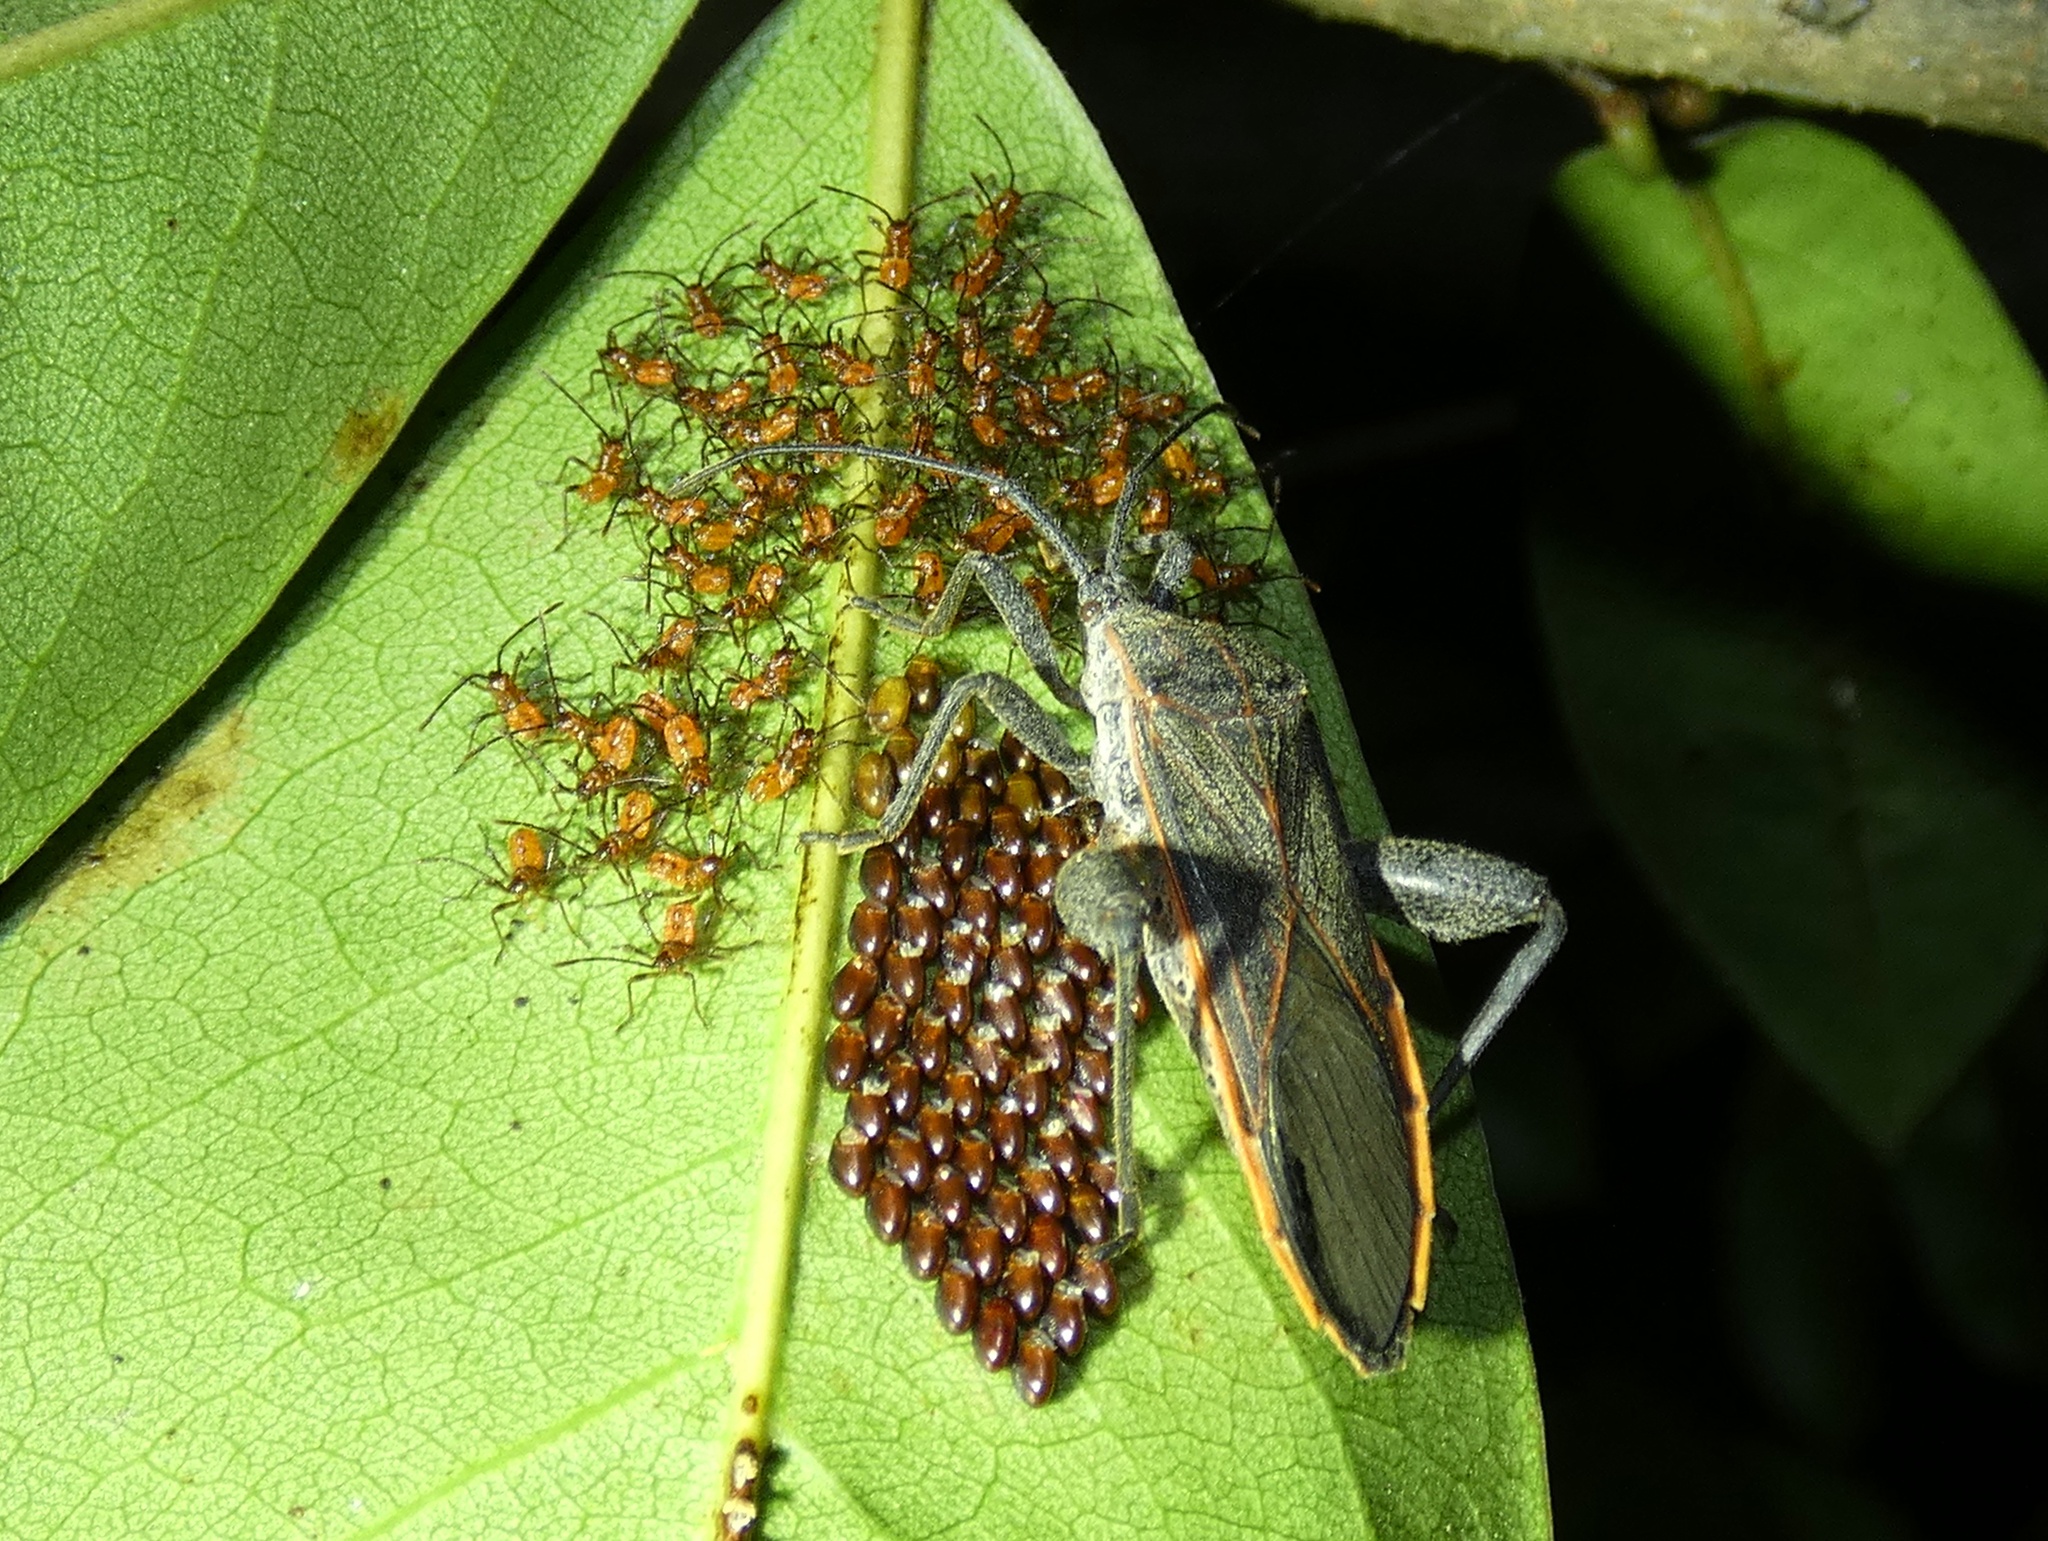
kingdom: Animalia
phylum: Arthropoda
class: Insecta
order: Hemiptera
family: Coreidae
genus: Physomerus
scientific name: Physomerus grossipes
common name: Squash bug
